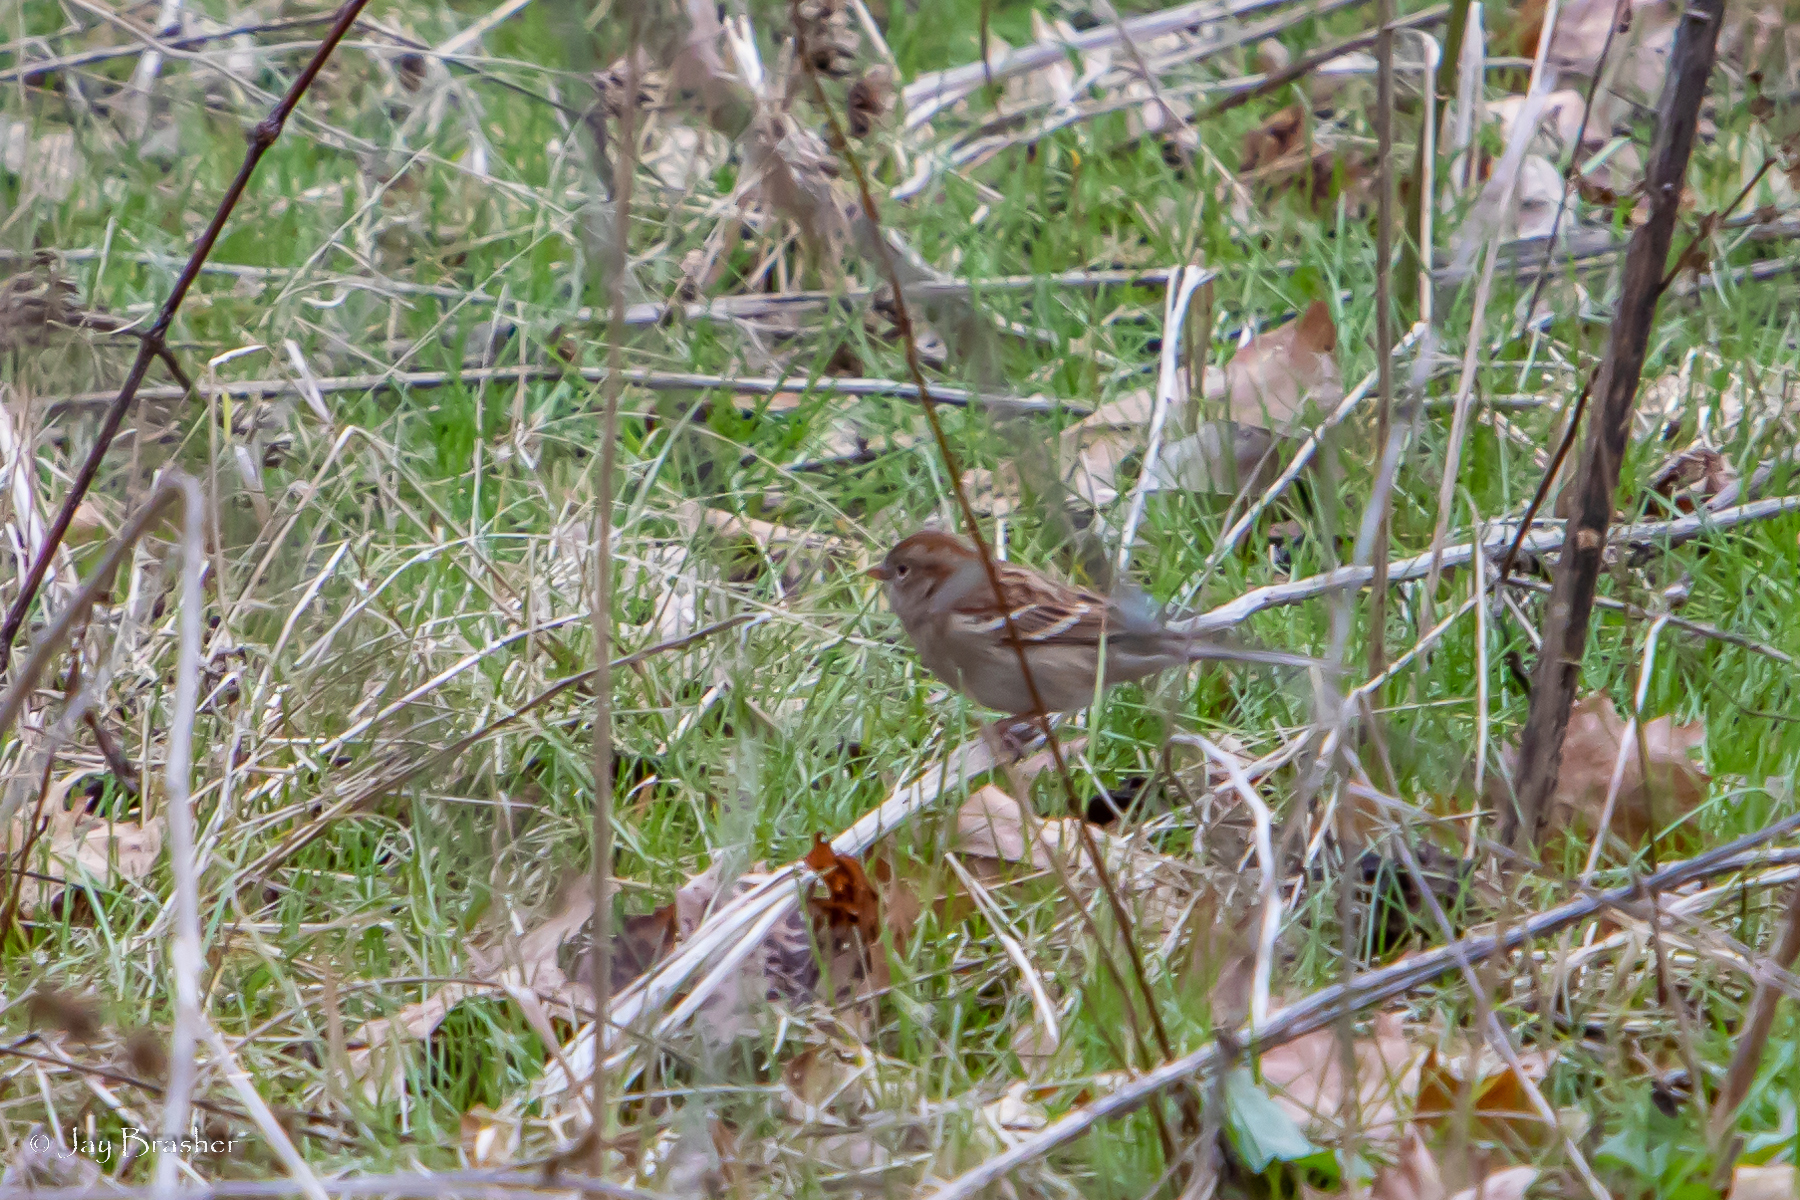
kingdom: Animalia
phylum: Chordata
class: Aves
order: Passeriformes
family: Passerellidae
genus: Spizella
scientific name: Spizella pusilla
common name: Field sparrow
